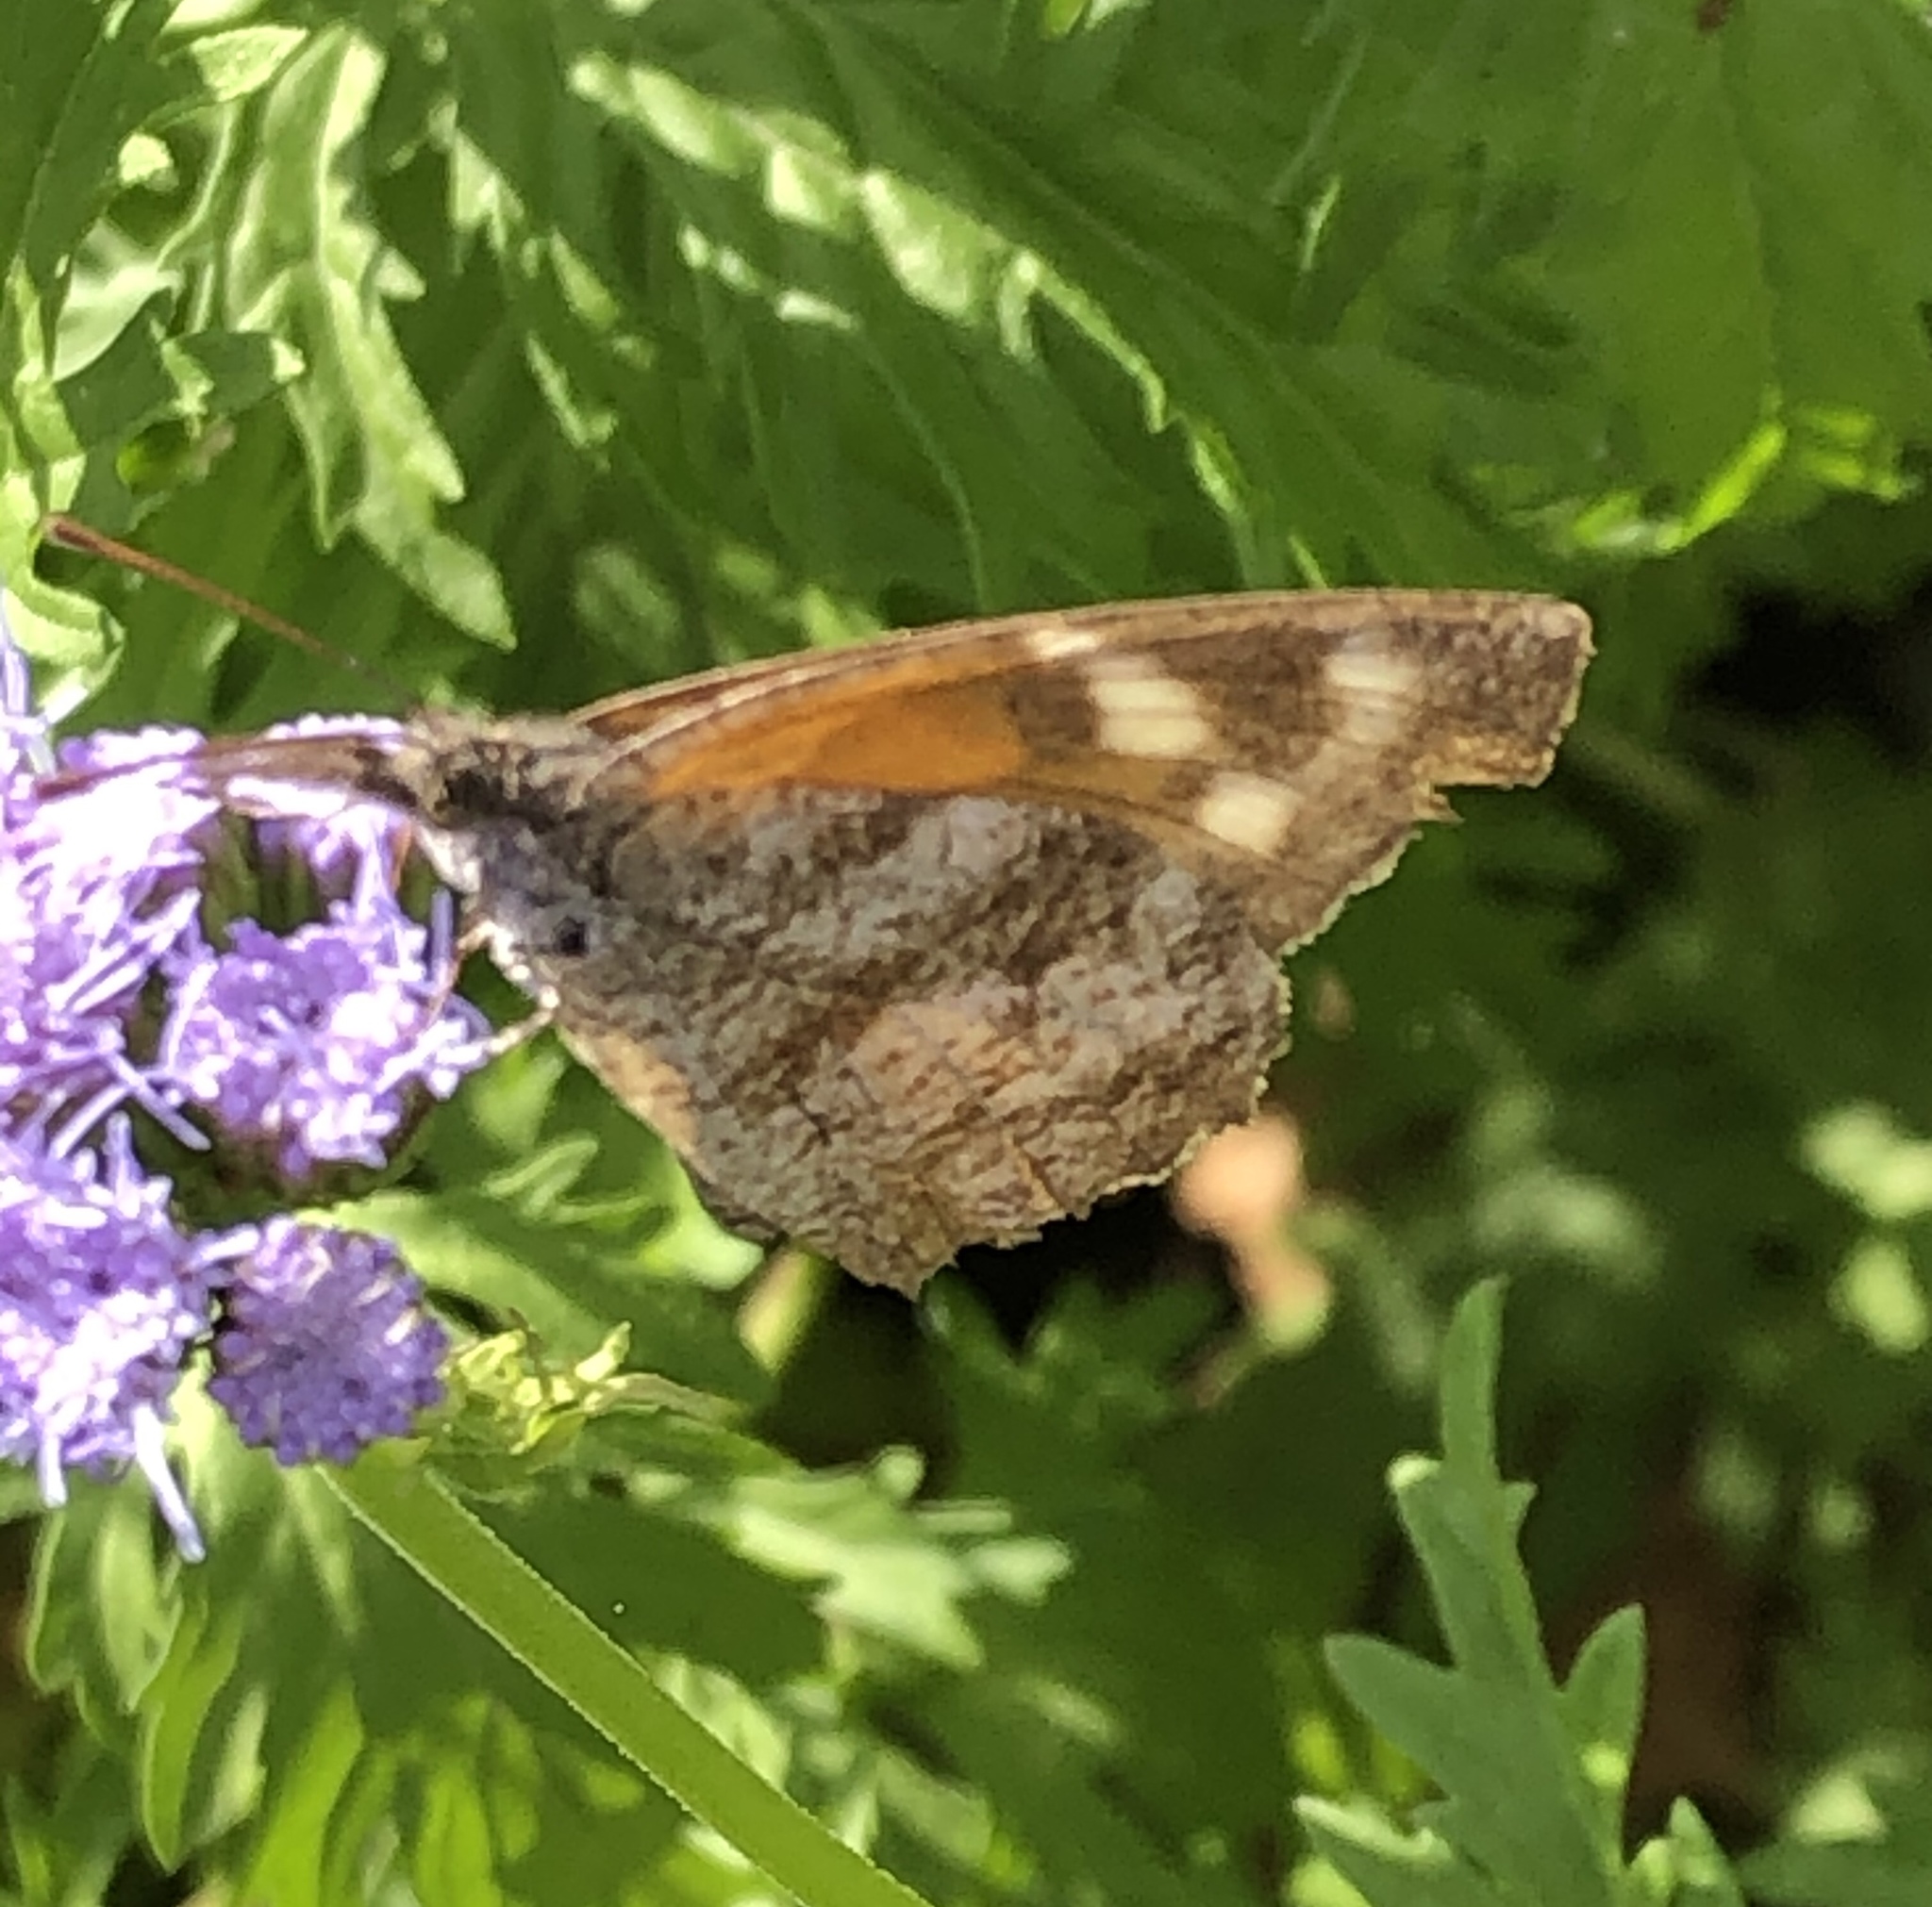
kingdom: Animalia
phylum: Arthropoda
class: Insecta
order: Lepidoptera
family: Nymphalidae
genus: Libytheana
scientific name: Libytheana carinenta
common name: American snout
